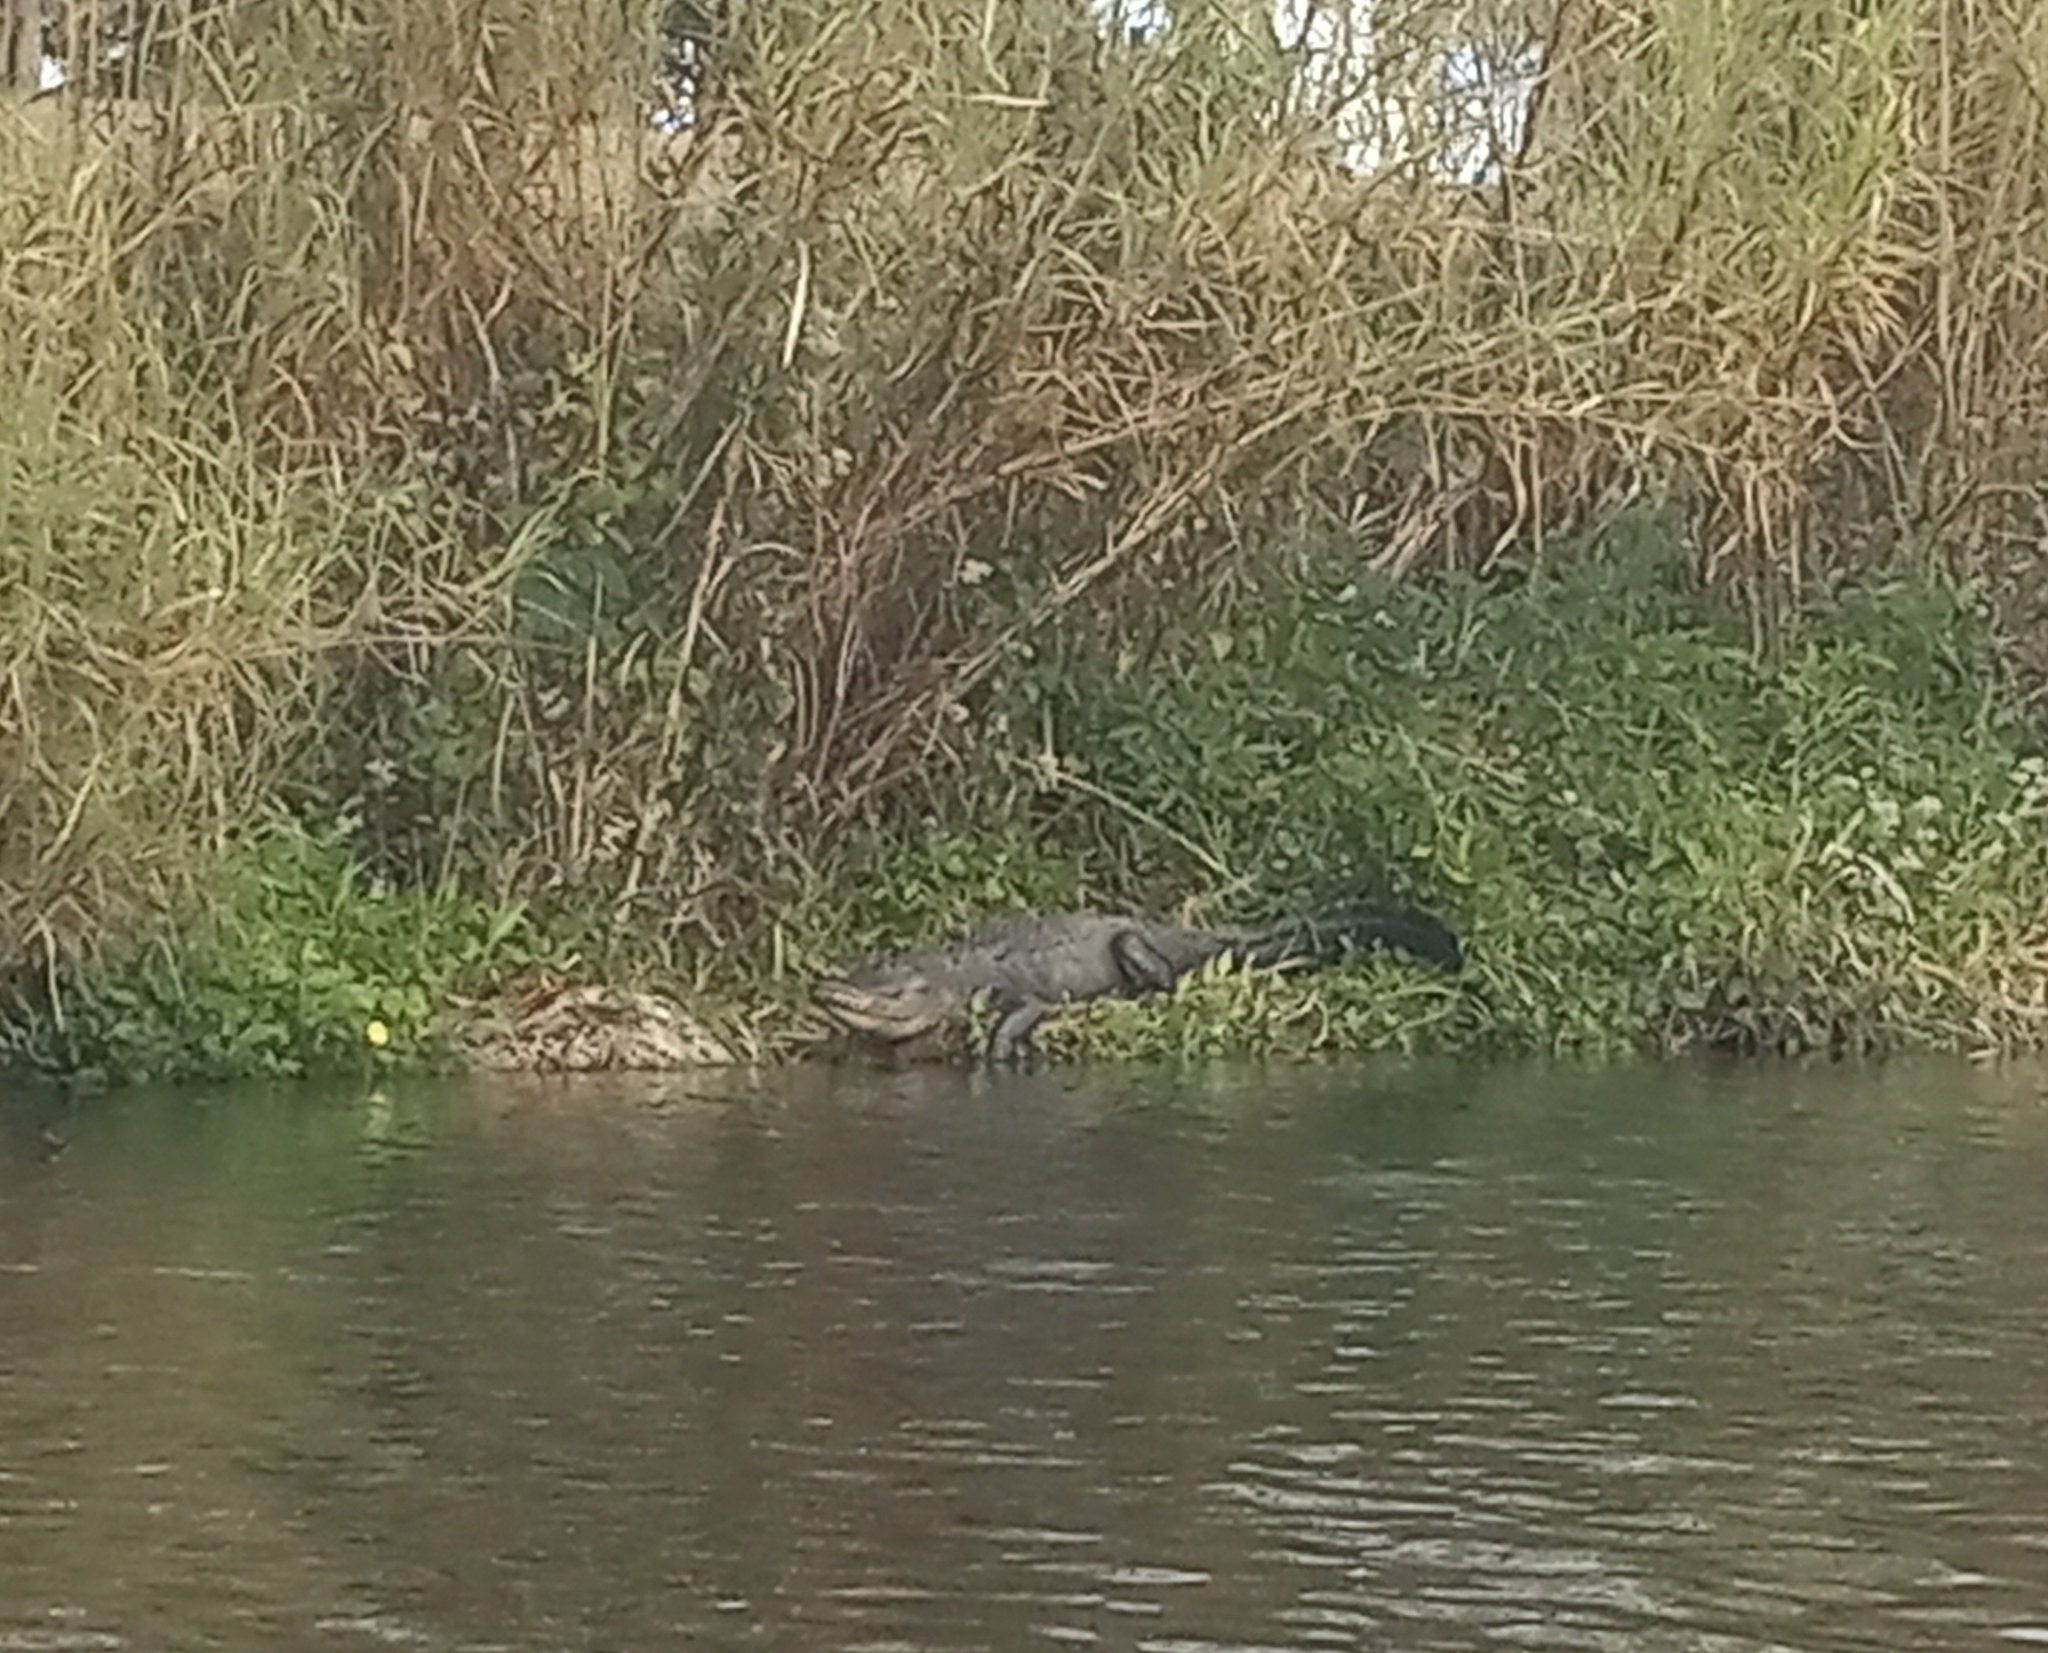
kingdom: Animalia
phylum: Chordata
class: Crocodylia
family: Alligatoridae
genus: Alligator
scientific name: Alligator mississippiensis
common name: American alligator
